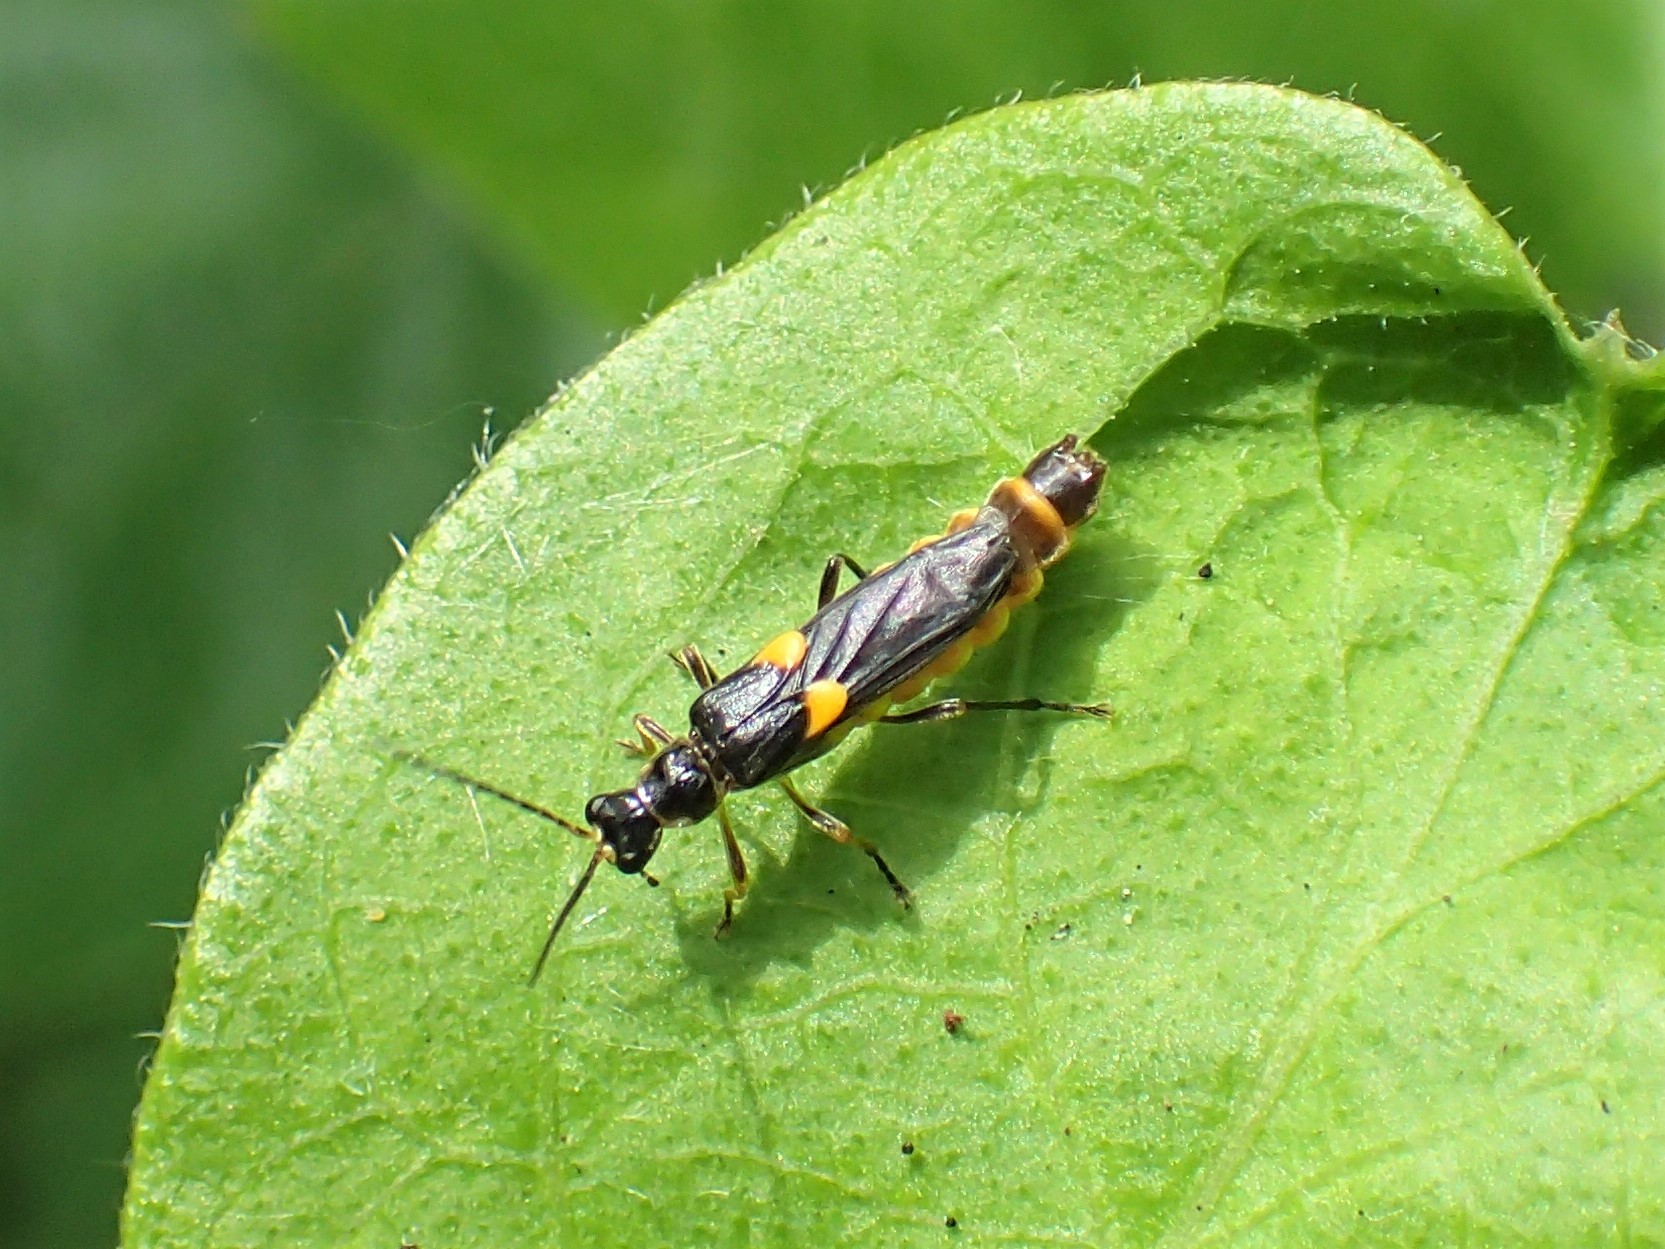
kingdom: Animalia
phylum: Arthropoda
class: Insecta
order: Coleoptera
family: Cantharidae
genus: Trypherus
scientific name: Trypherus frisoni
